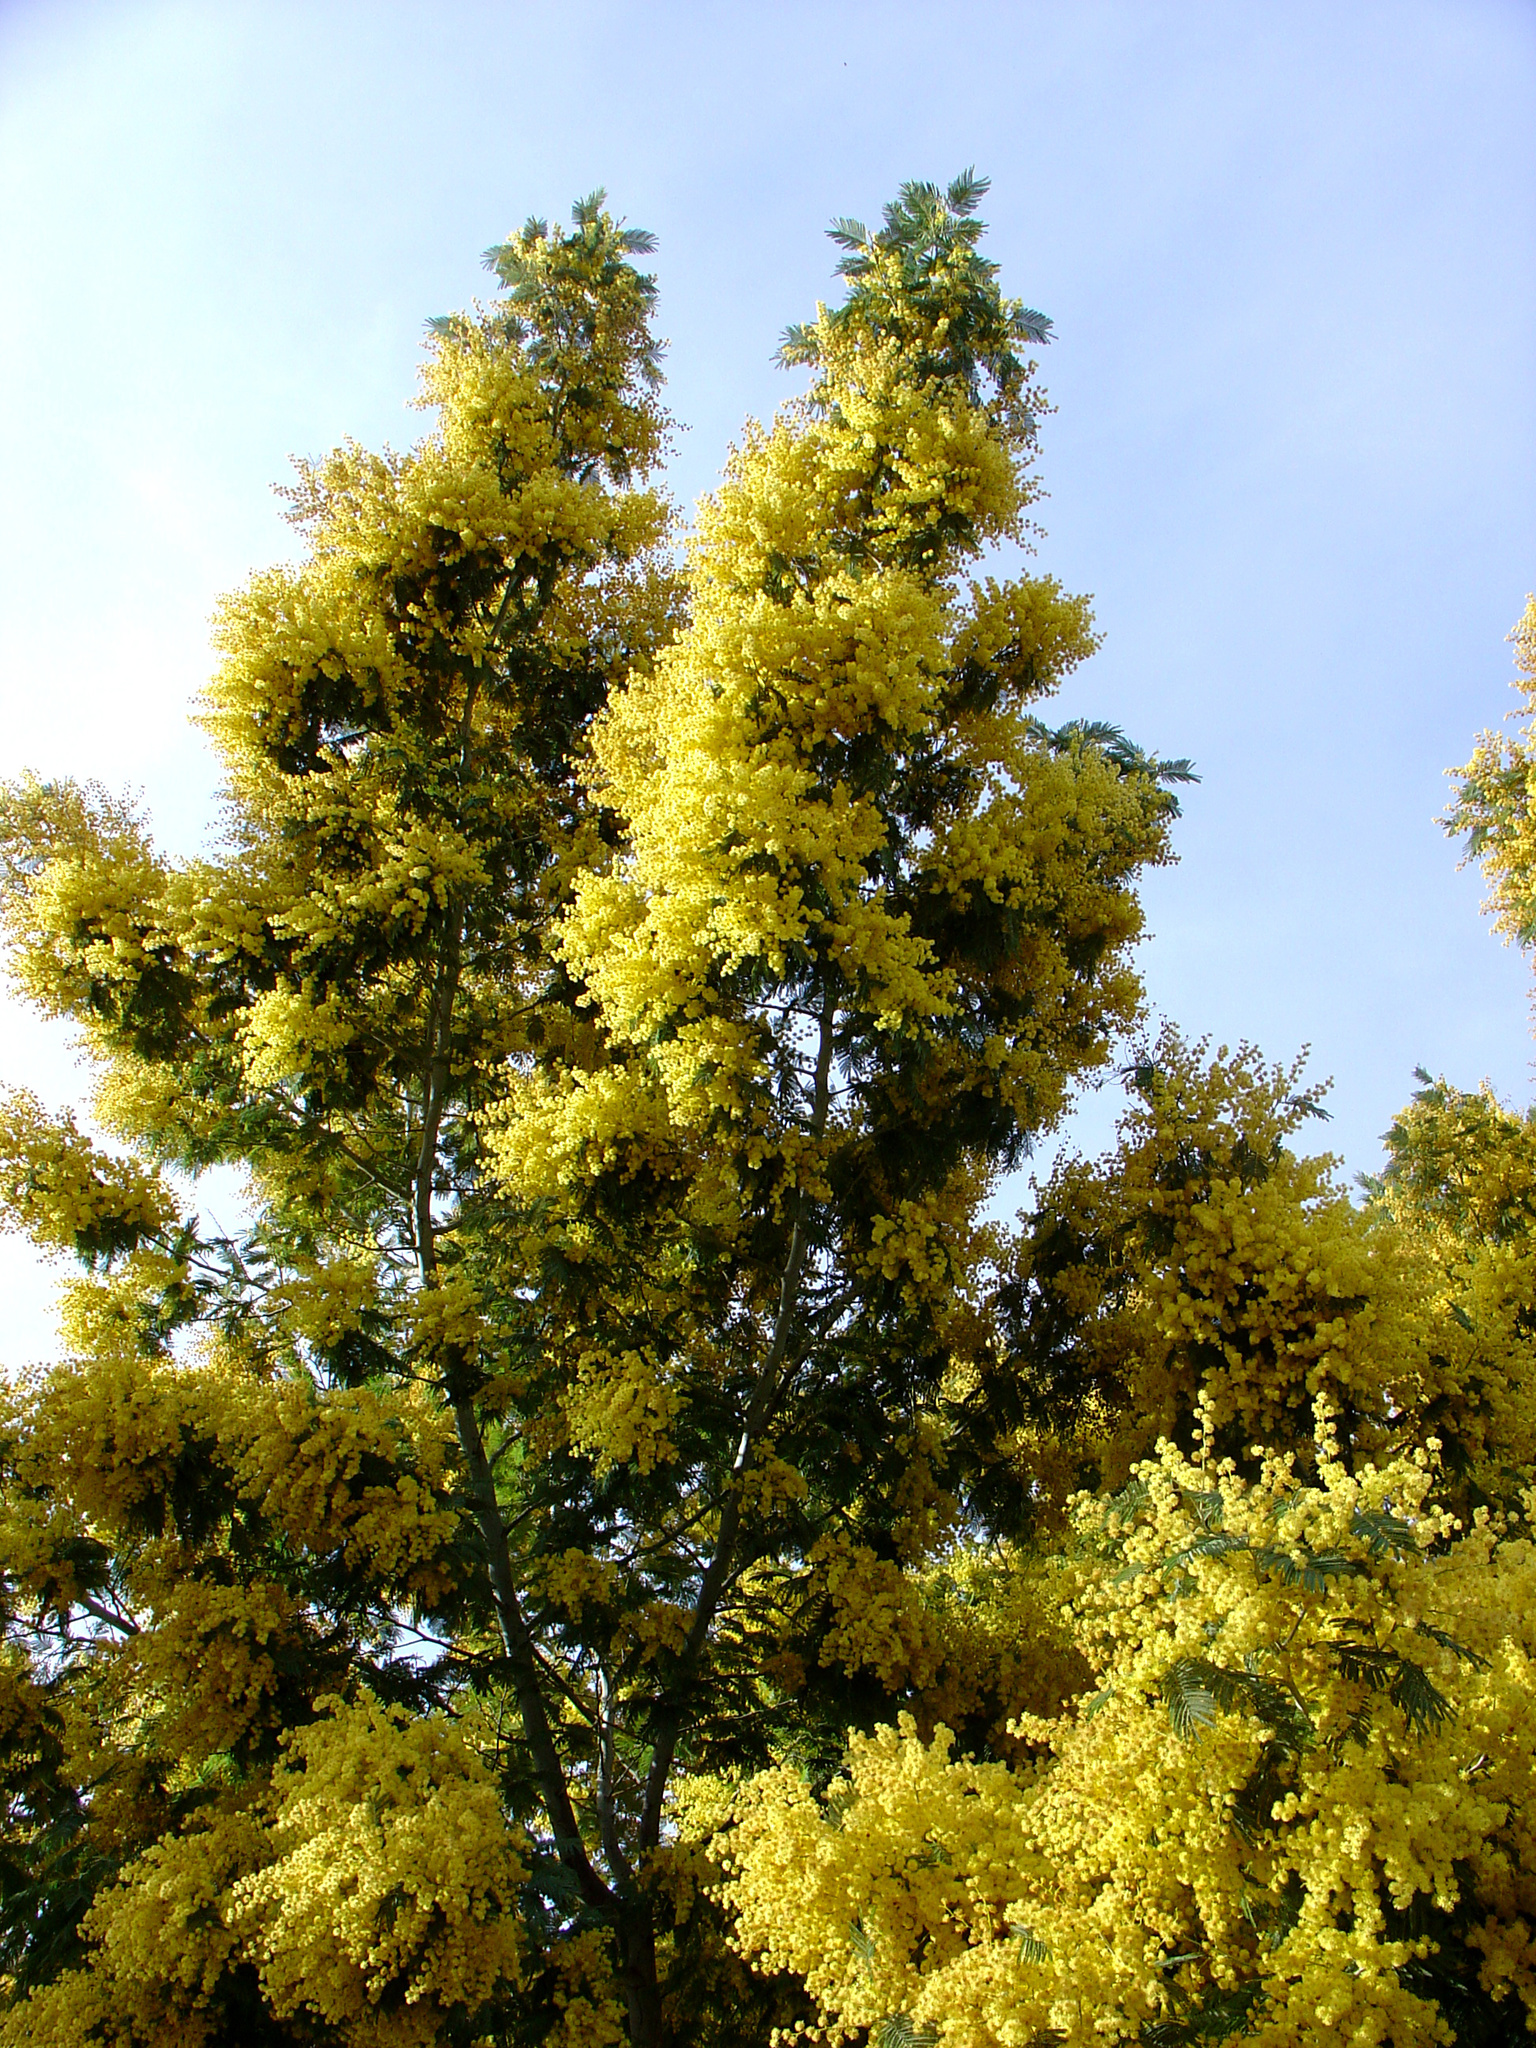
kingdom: Plantae
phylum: Tracheophyta
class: Magnoliopsida
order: Fabales
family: Fabaceae
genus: Acacia
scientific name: Acacia dealbata
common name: Silver wattle
